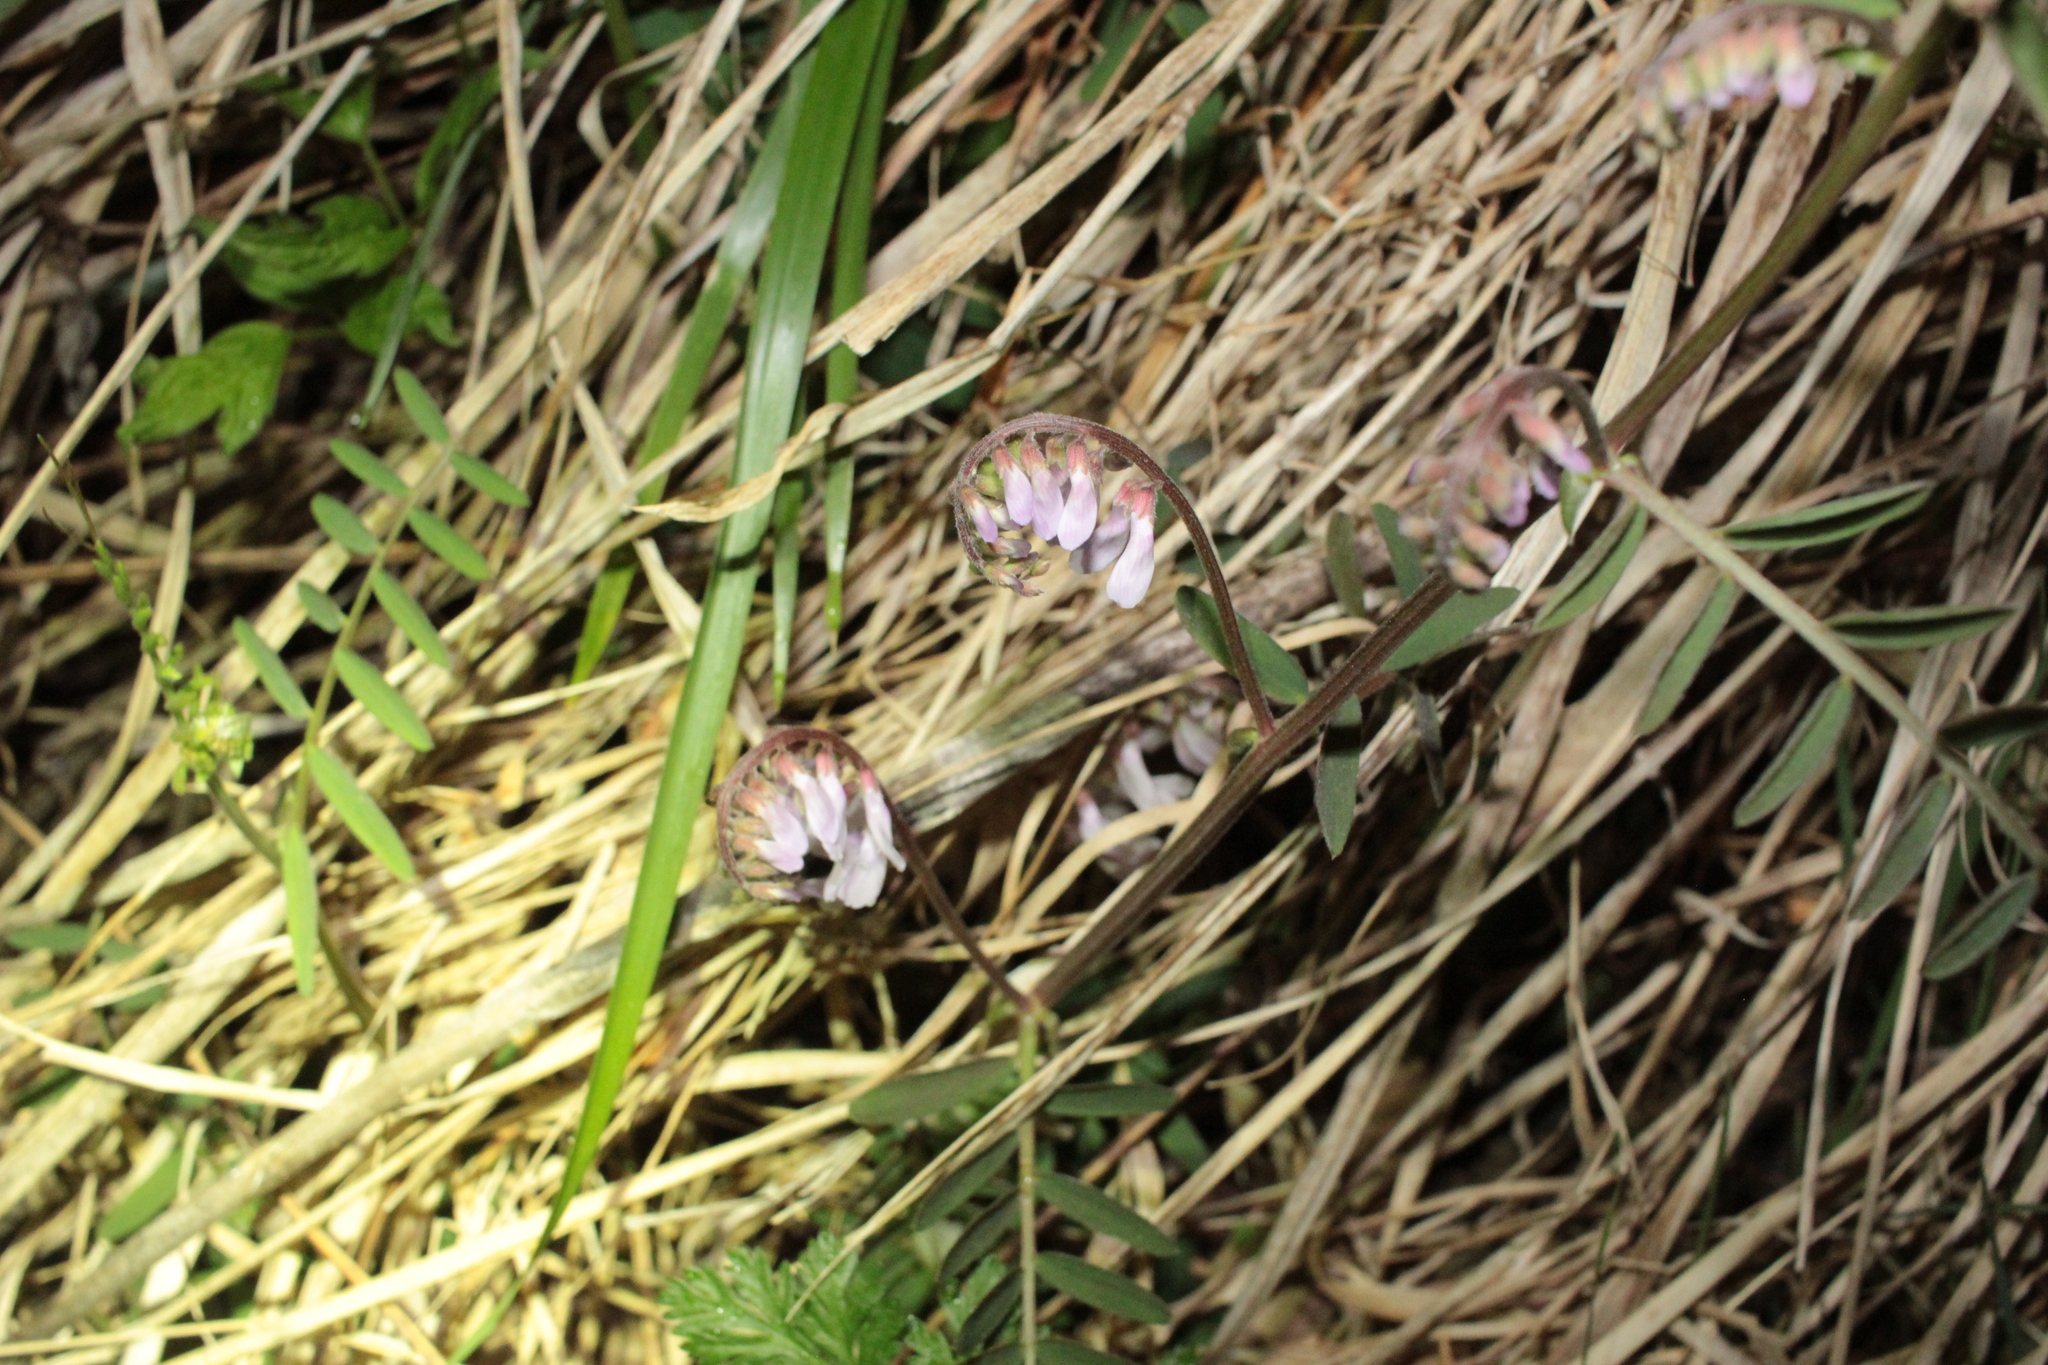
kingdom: Plantae
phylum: Tracheophyta
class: Magnoliopsida
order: Fabales
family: Fabaceae
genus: Vicia
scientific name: Vicia caroliniana
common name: Carolina vetch
